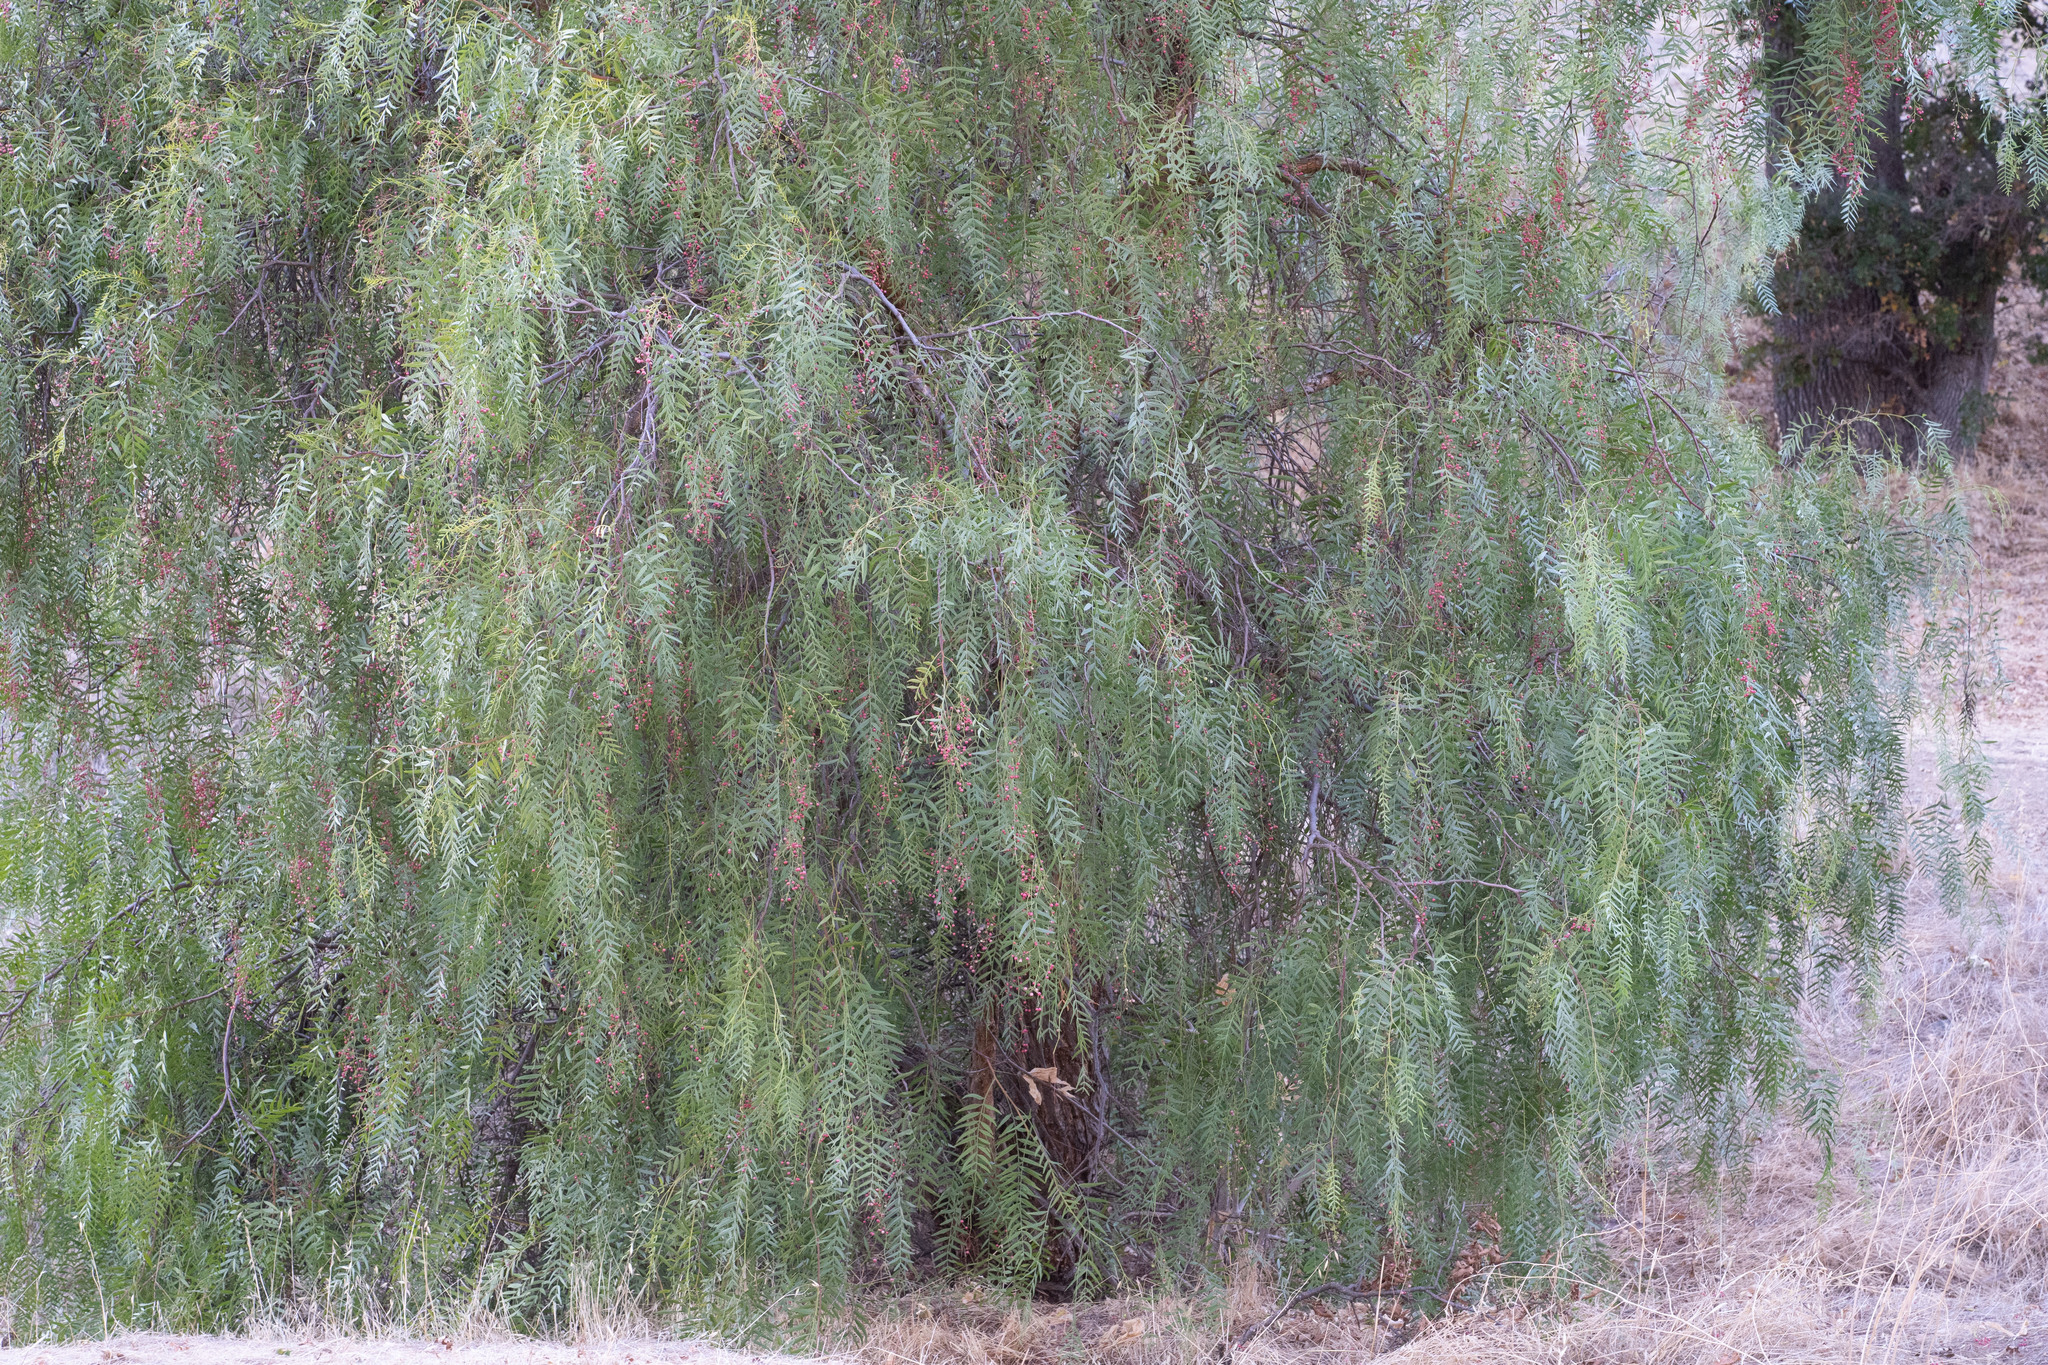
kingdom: Plantae
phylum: Tracheophyta
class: Magnoliopsida
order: Sapindales
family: Anacardiaceae
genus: Schinus
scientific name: Schinus molle
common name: Peruvian peppertree
